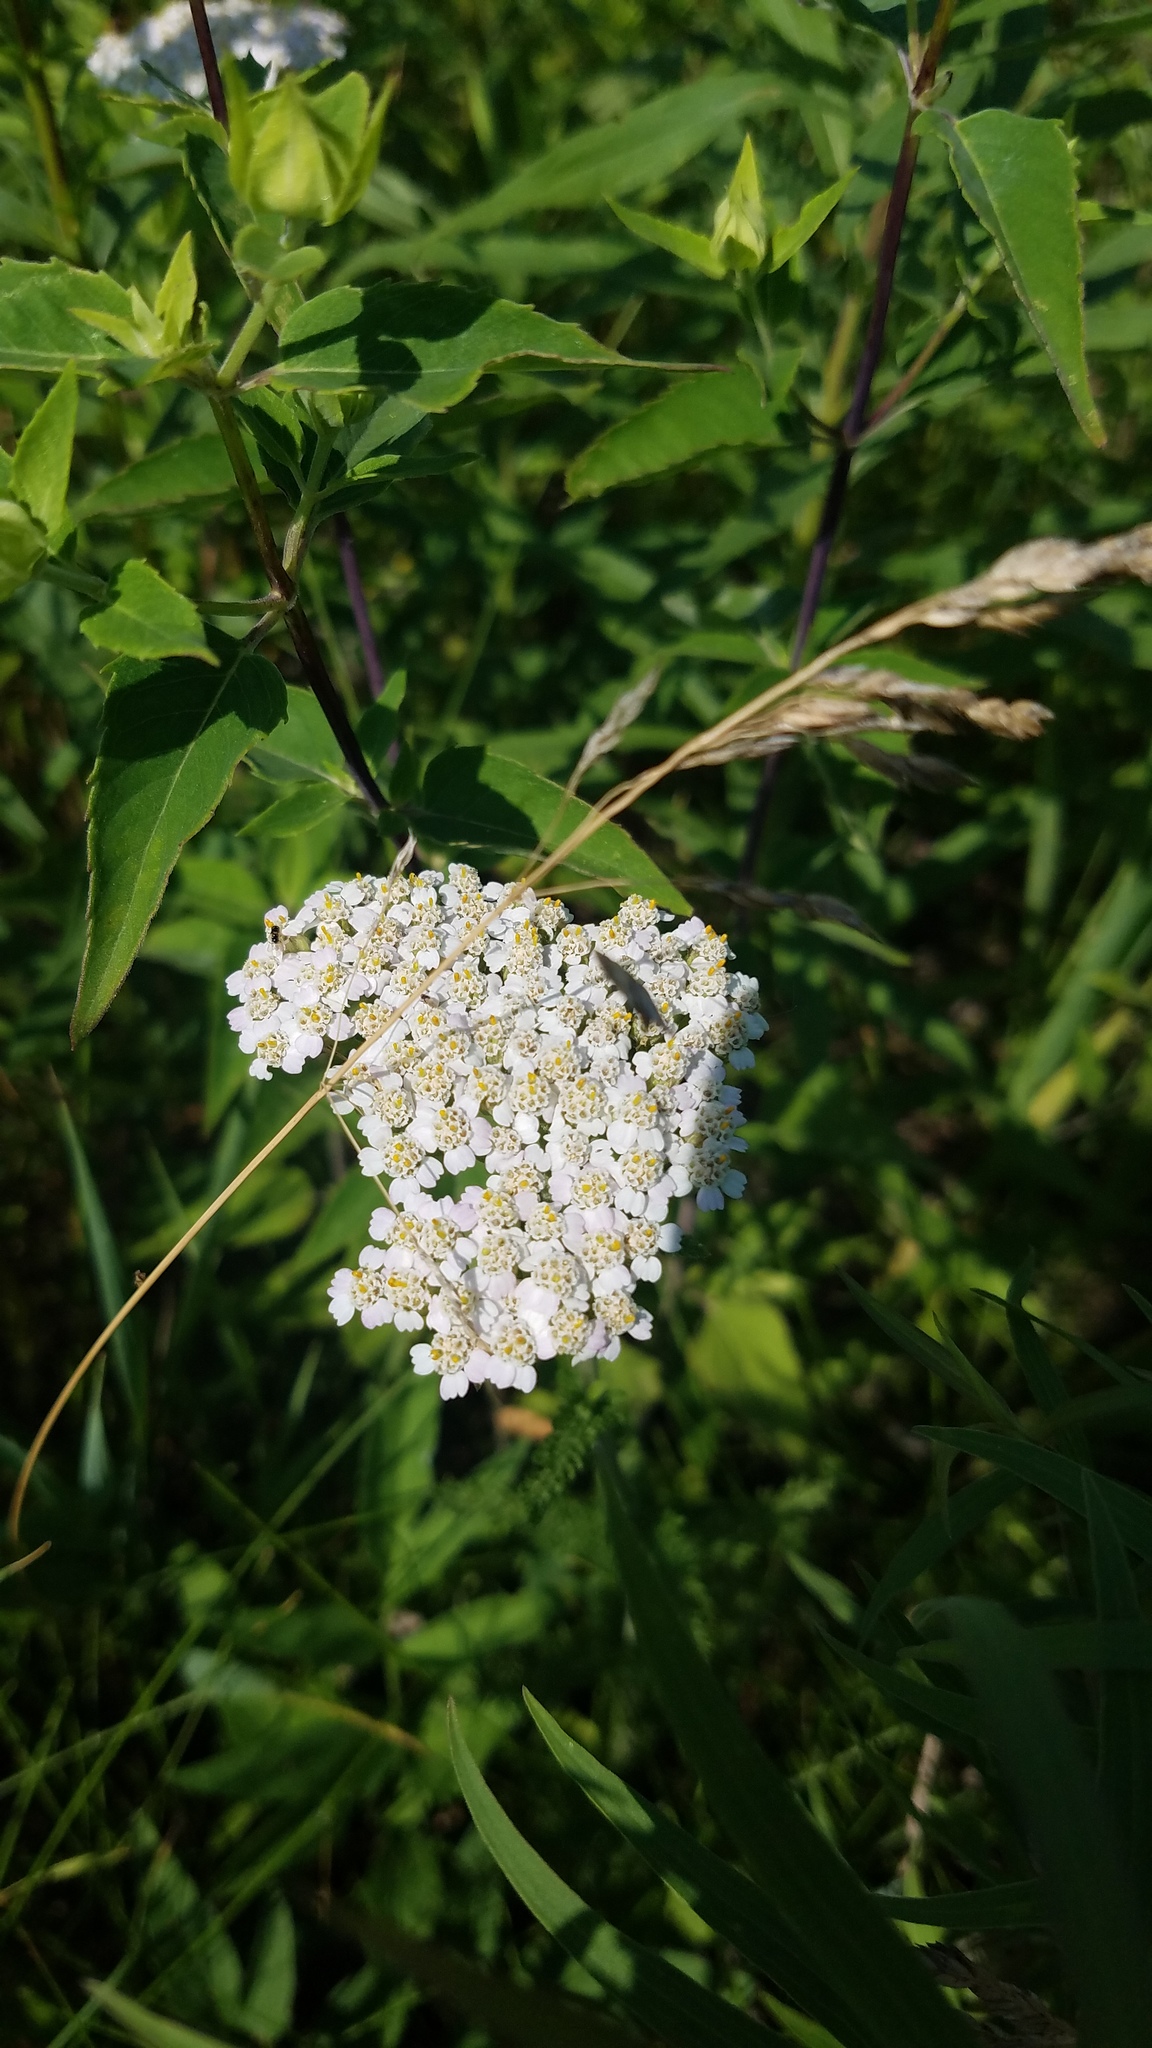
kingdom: Plantae
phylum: Tracheophyta
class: Magnoliopsida
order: Asterales
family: Asteraceae
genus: Achillea
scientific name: Achillea millefolium
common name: Yarrow
